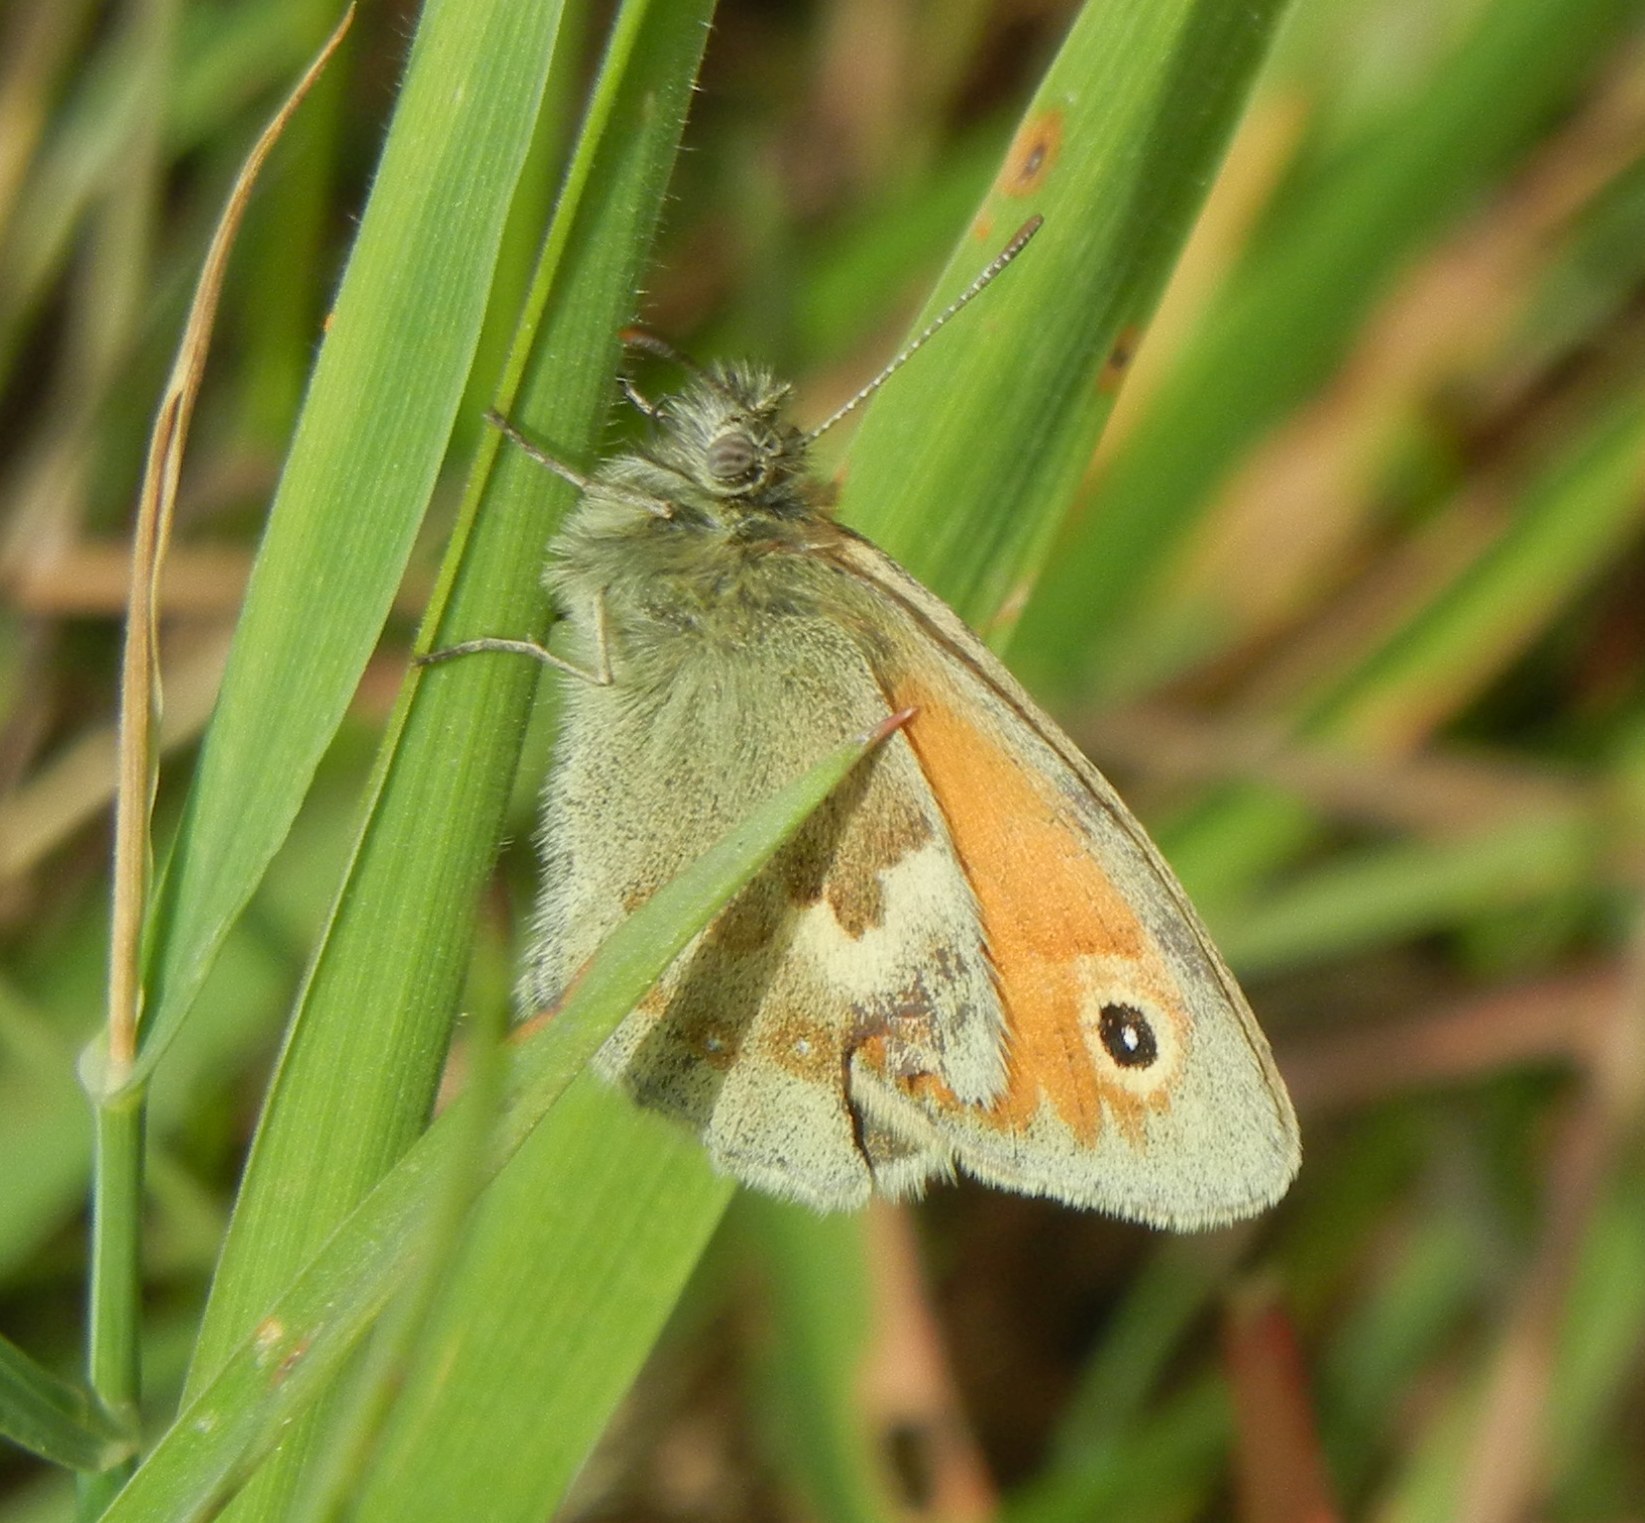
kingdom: Animalia
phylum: Arthropoda
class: Insecta
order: Lepidoptera
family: Nymphalidae
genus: Coenonympha
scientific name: Coenonympha pamphilus
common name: Small heath
